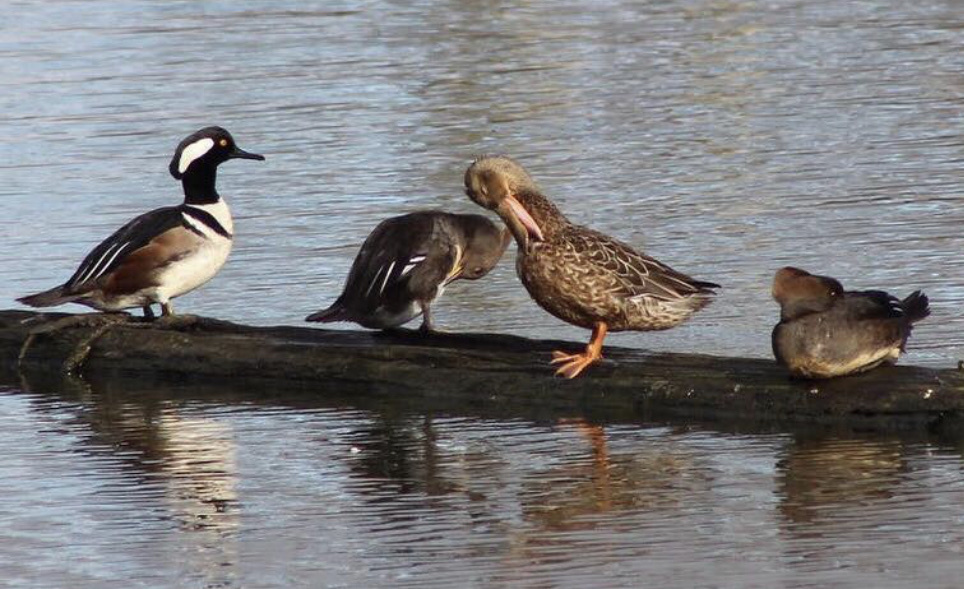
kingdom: Animalia
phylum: Chordata
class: Aves
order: Anseriformes
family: Anatidae
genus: Lophodytes
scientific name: Lophodytes cucullatus
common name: Hooded merganser
